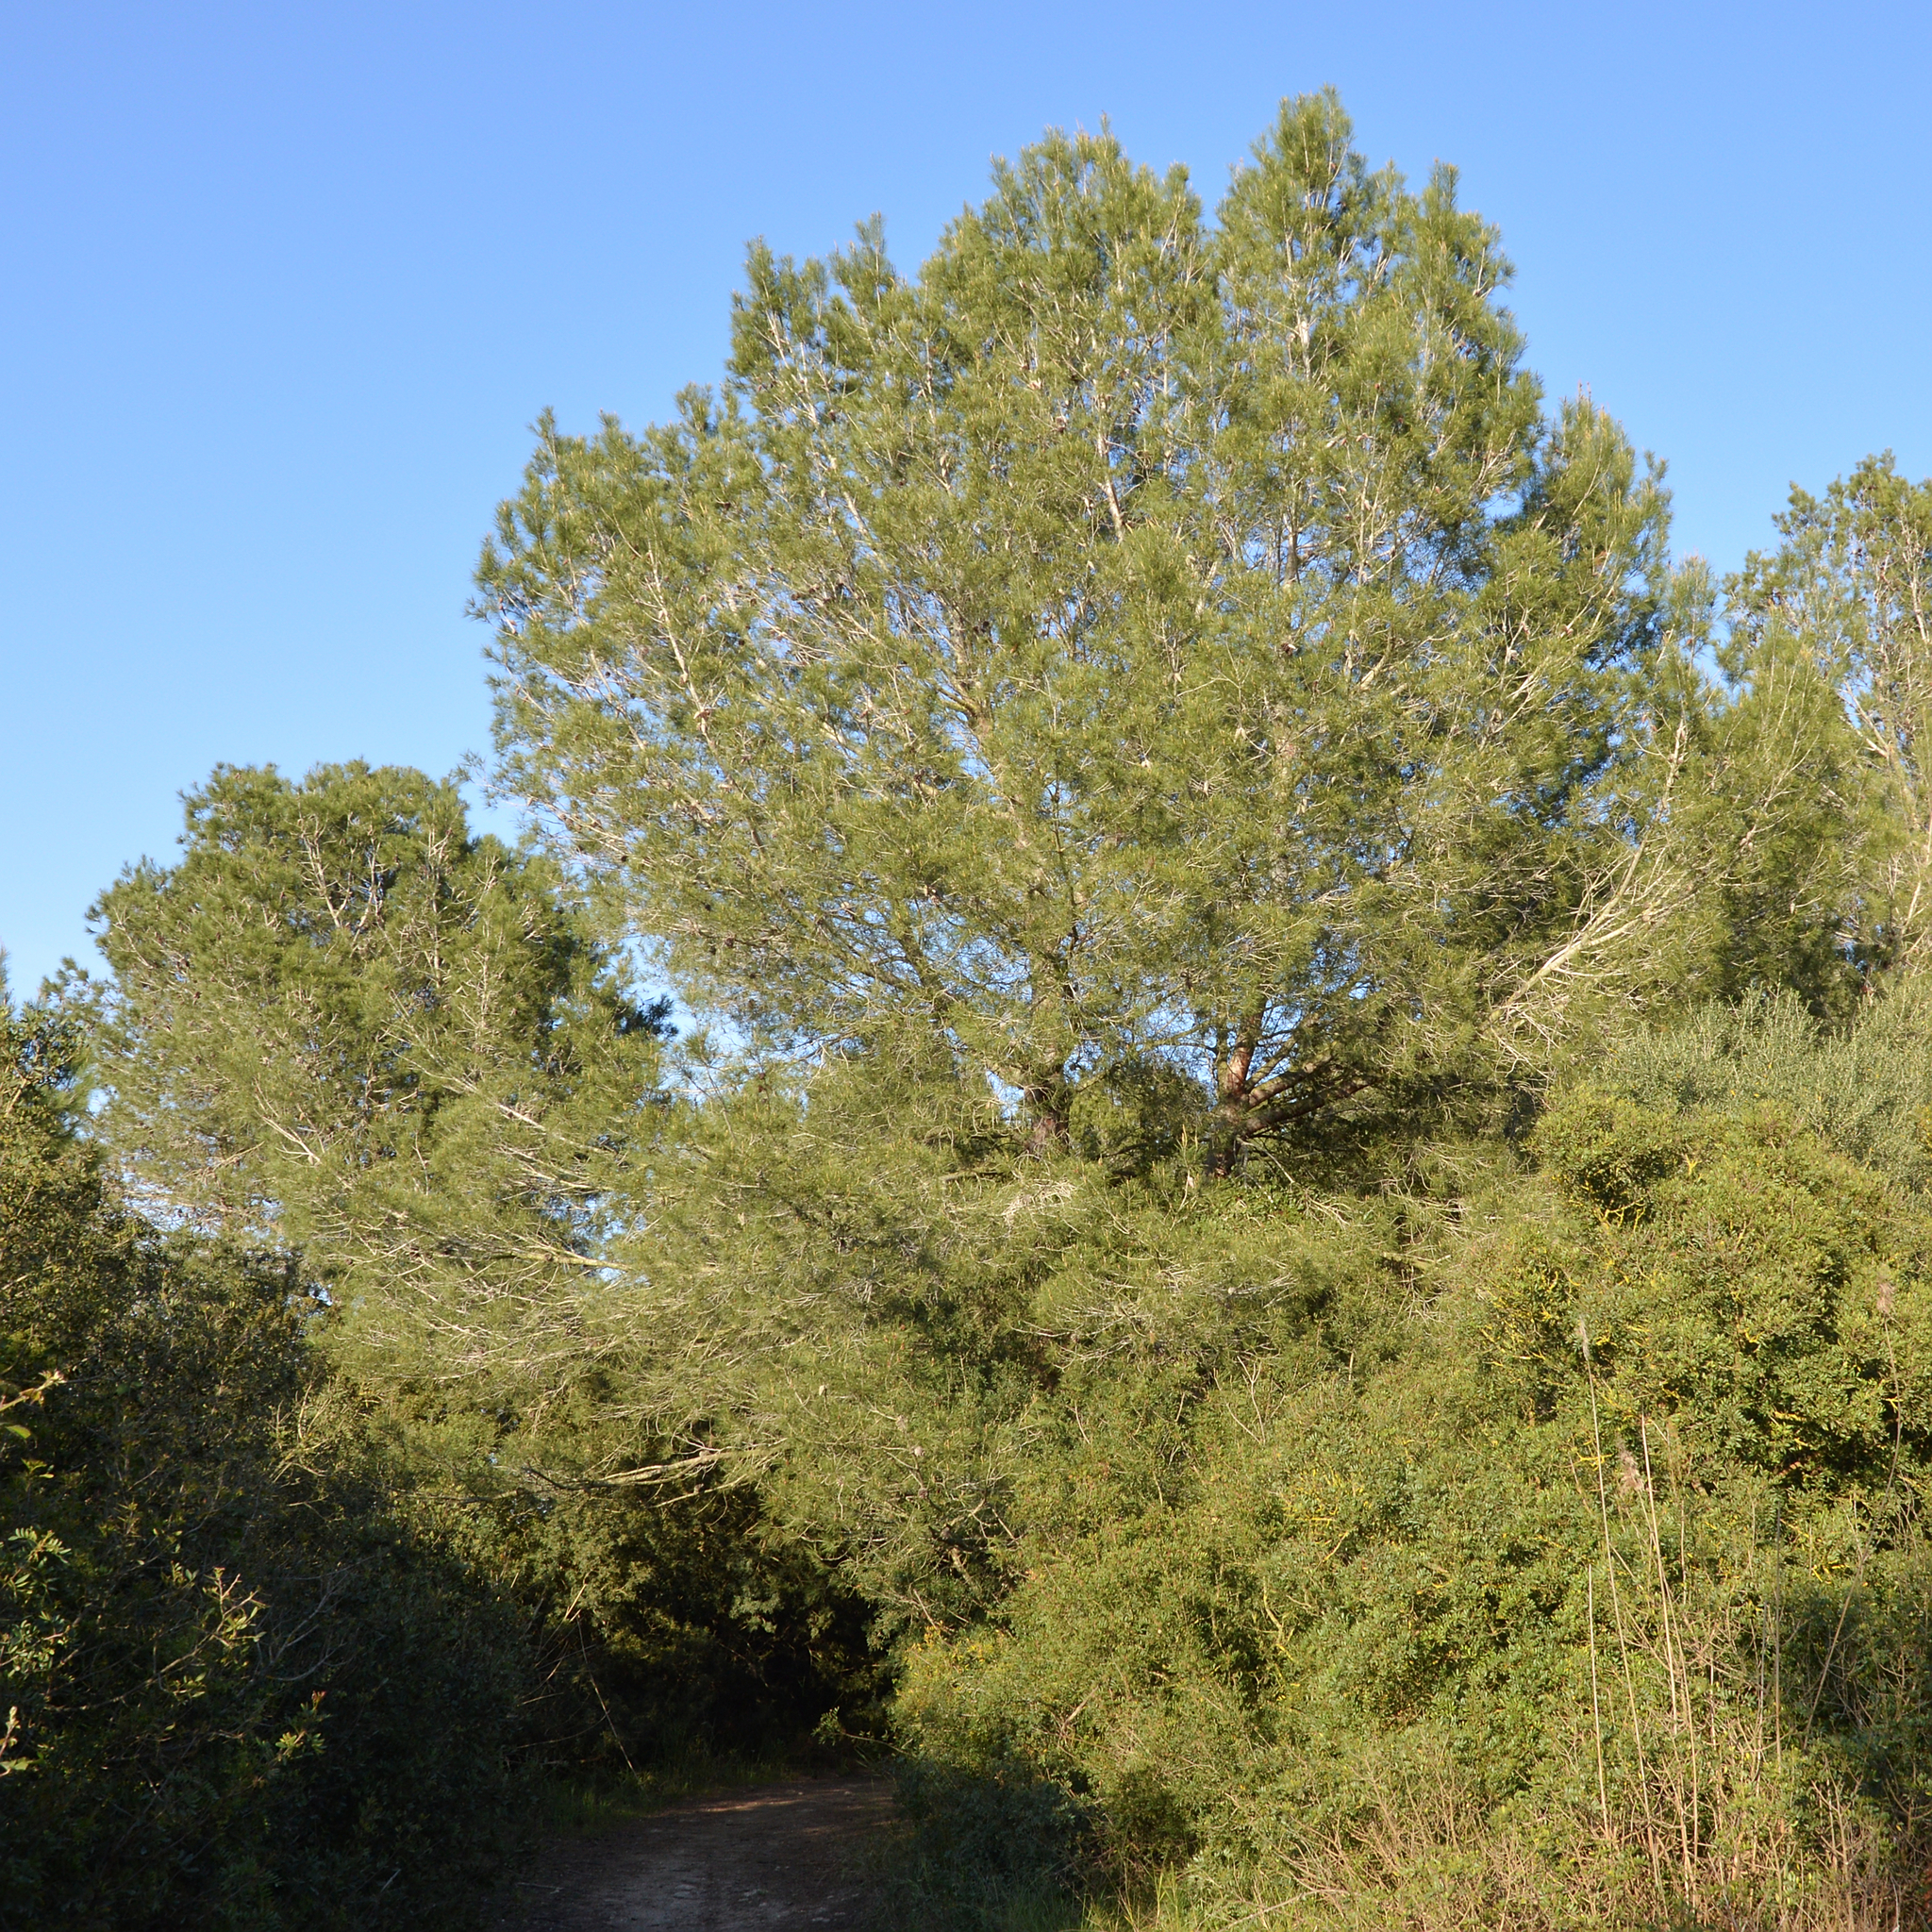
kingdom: Plantae
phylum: Tracheophyta
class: Pinopsida
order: Pinales
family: Pinaceae
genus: Pinus
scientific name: Pinus halepensis
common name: Aleppo pine
